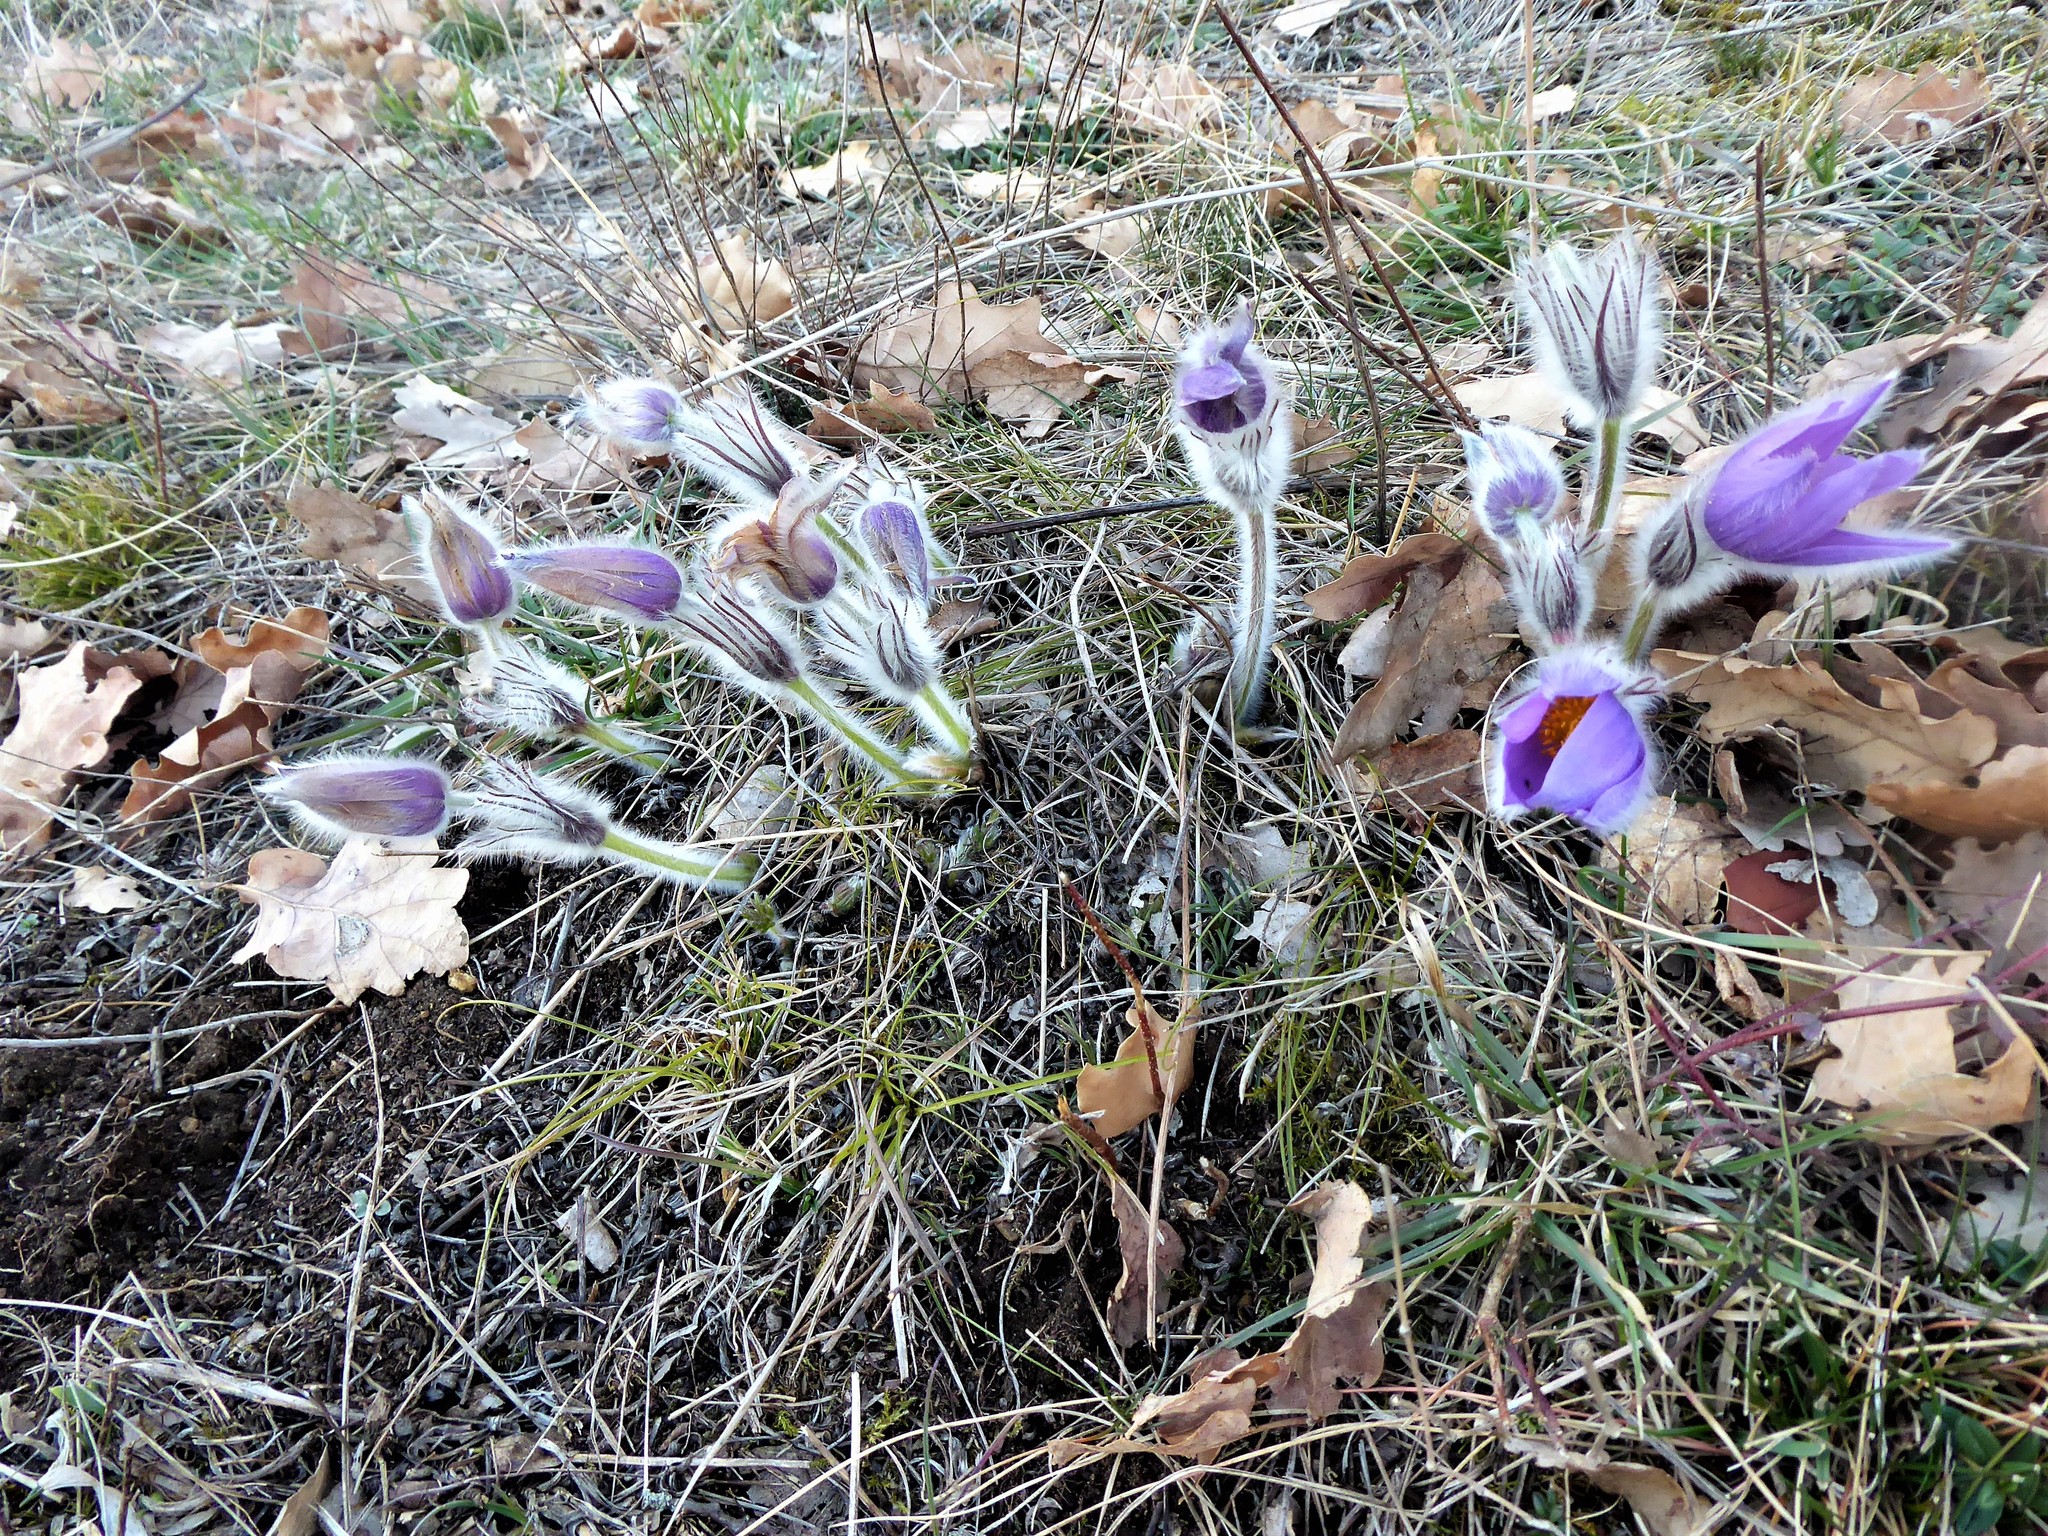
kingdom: Plantae
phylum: Tracheophyta
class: Magnoliopsida
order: Ranunculales
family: Ranunculaceae
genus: Pulsatilla
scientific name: Pulsatilla grandis
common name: Greater pasque flower
